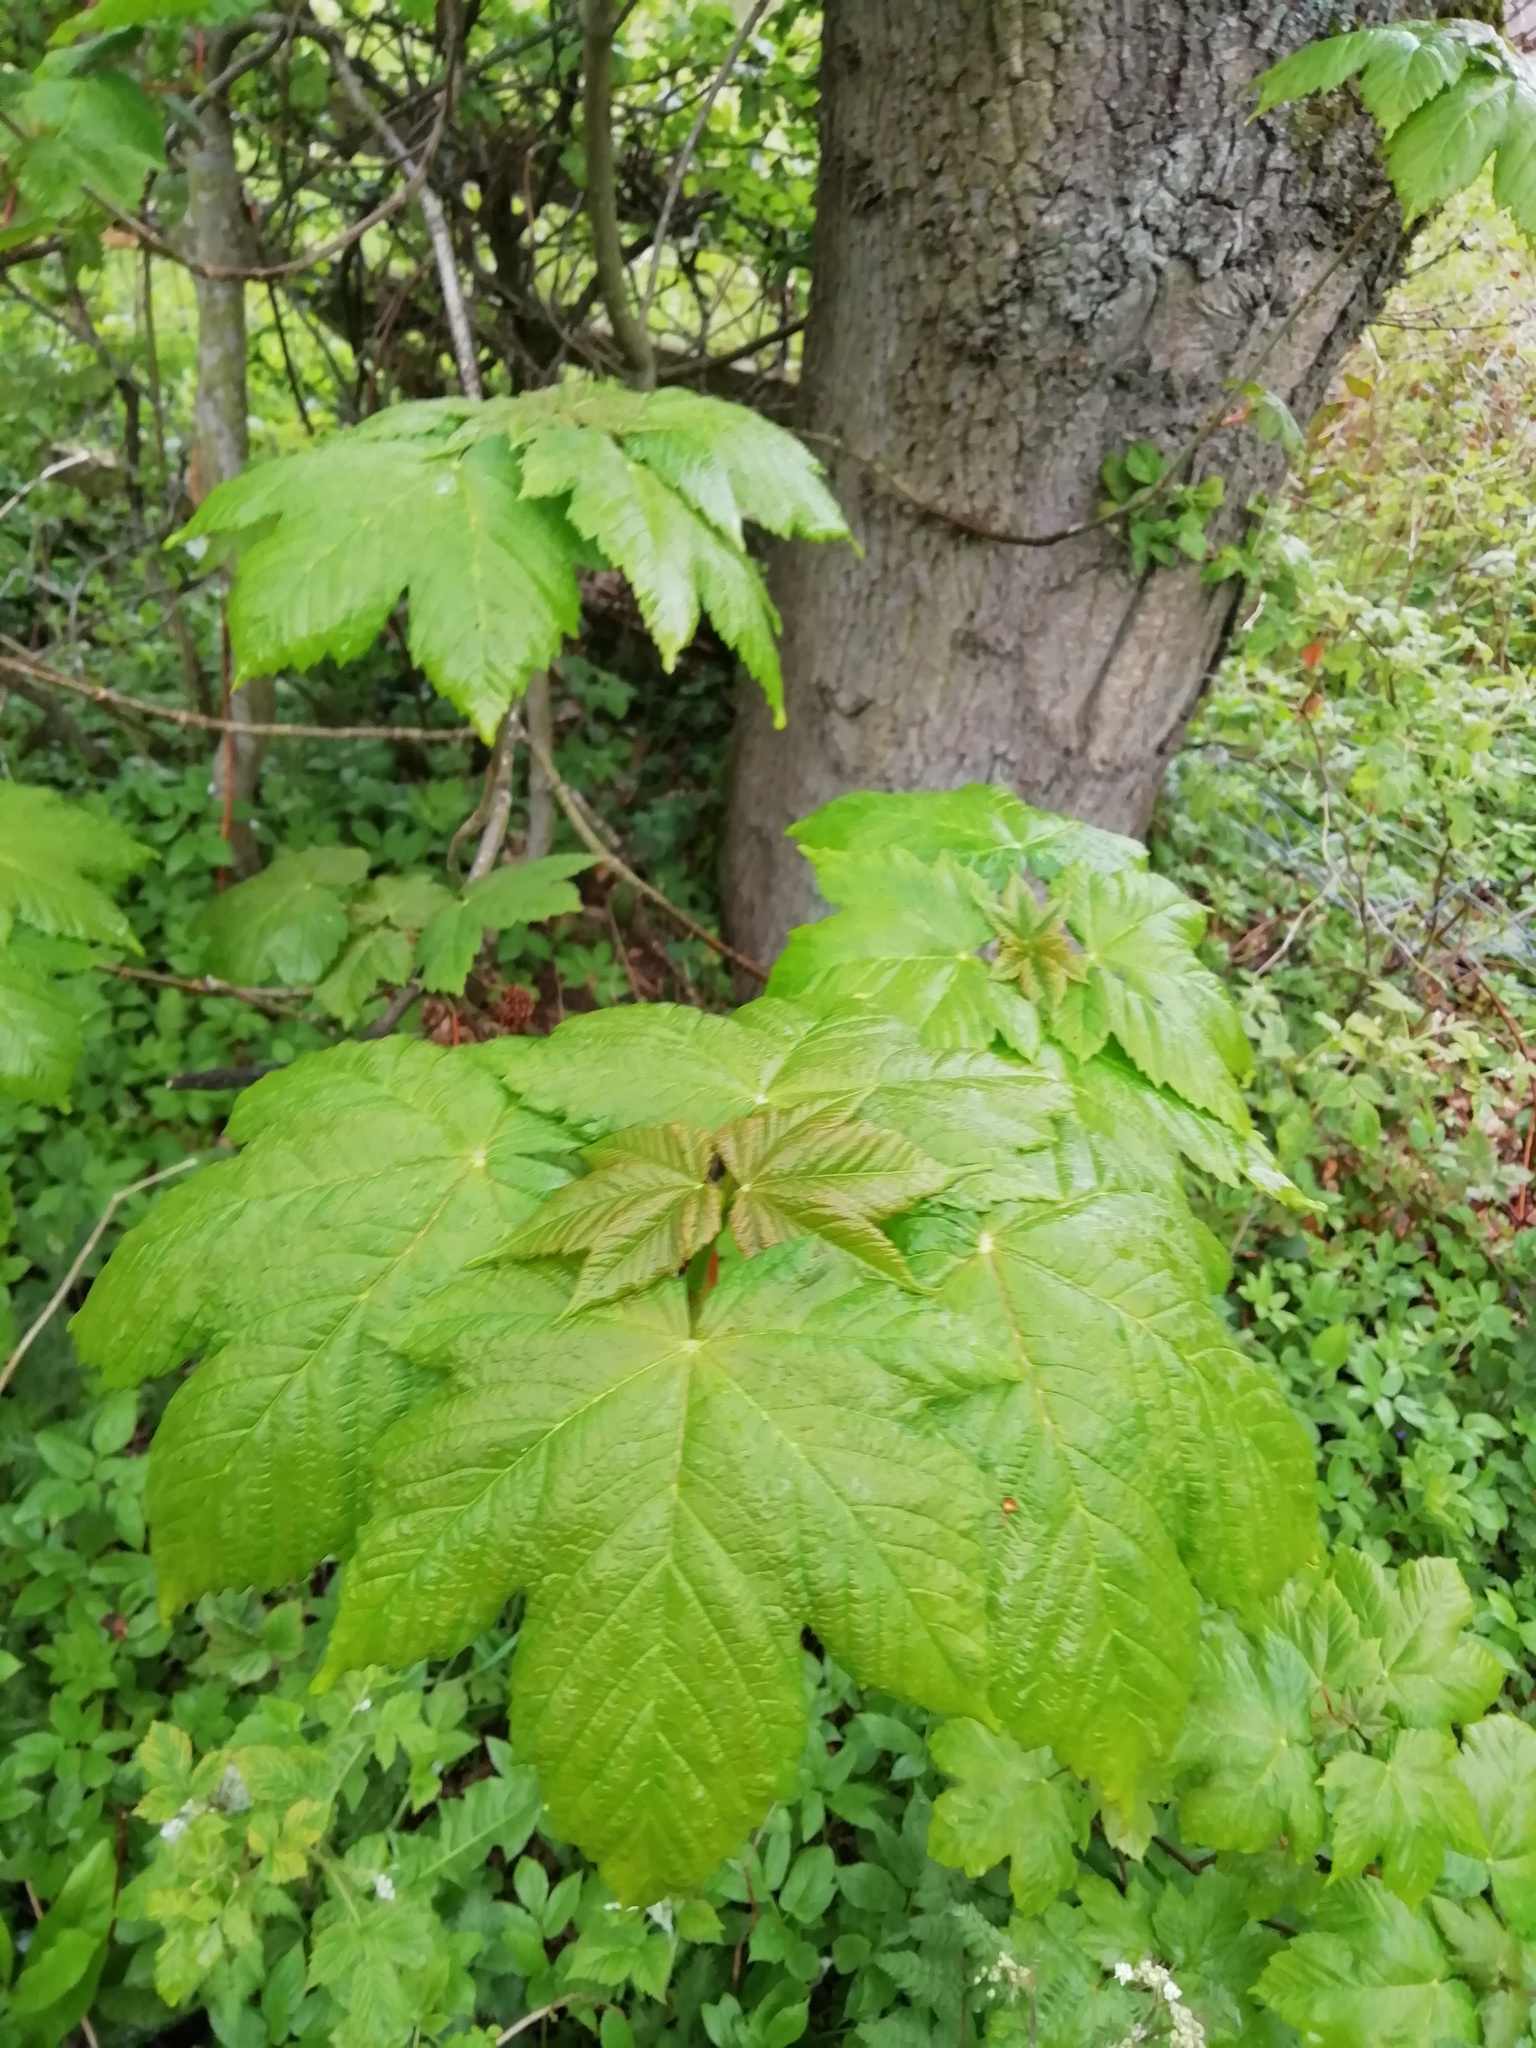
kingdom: Plantae
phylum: Tracheophyta
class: Magnoliopsida
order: Sapindales
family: Sapindaceae
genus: Acer
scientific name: Acer pseudoplatanus
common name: Sycamore
